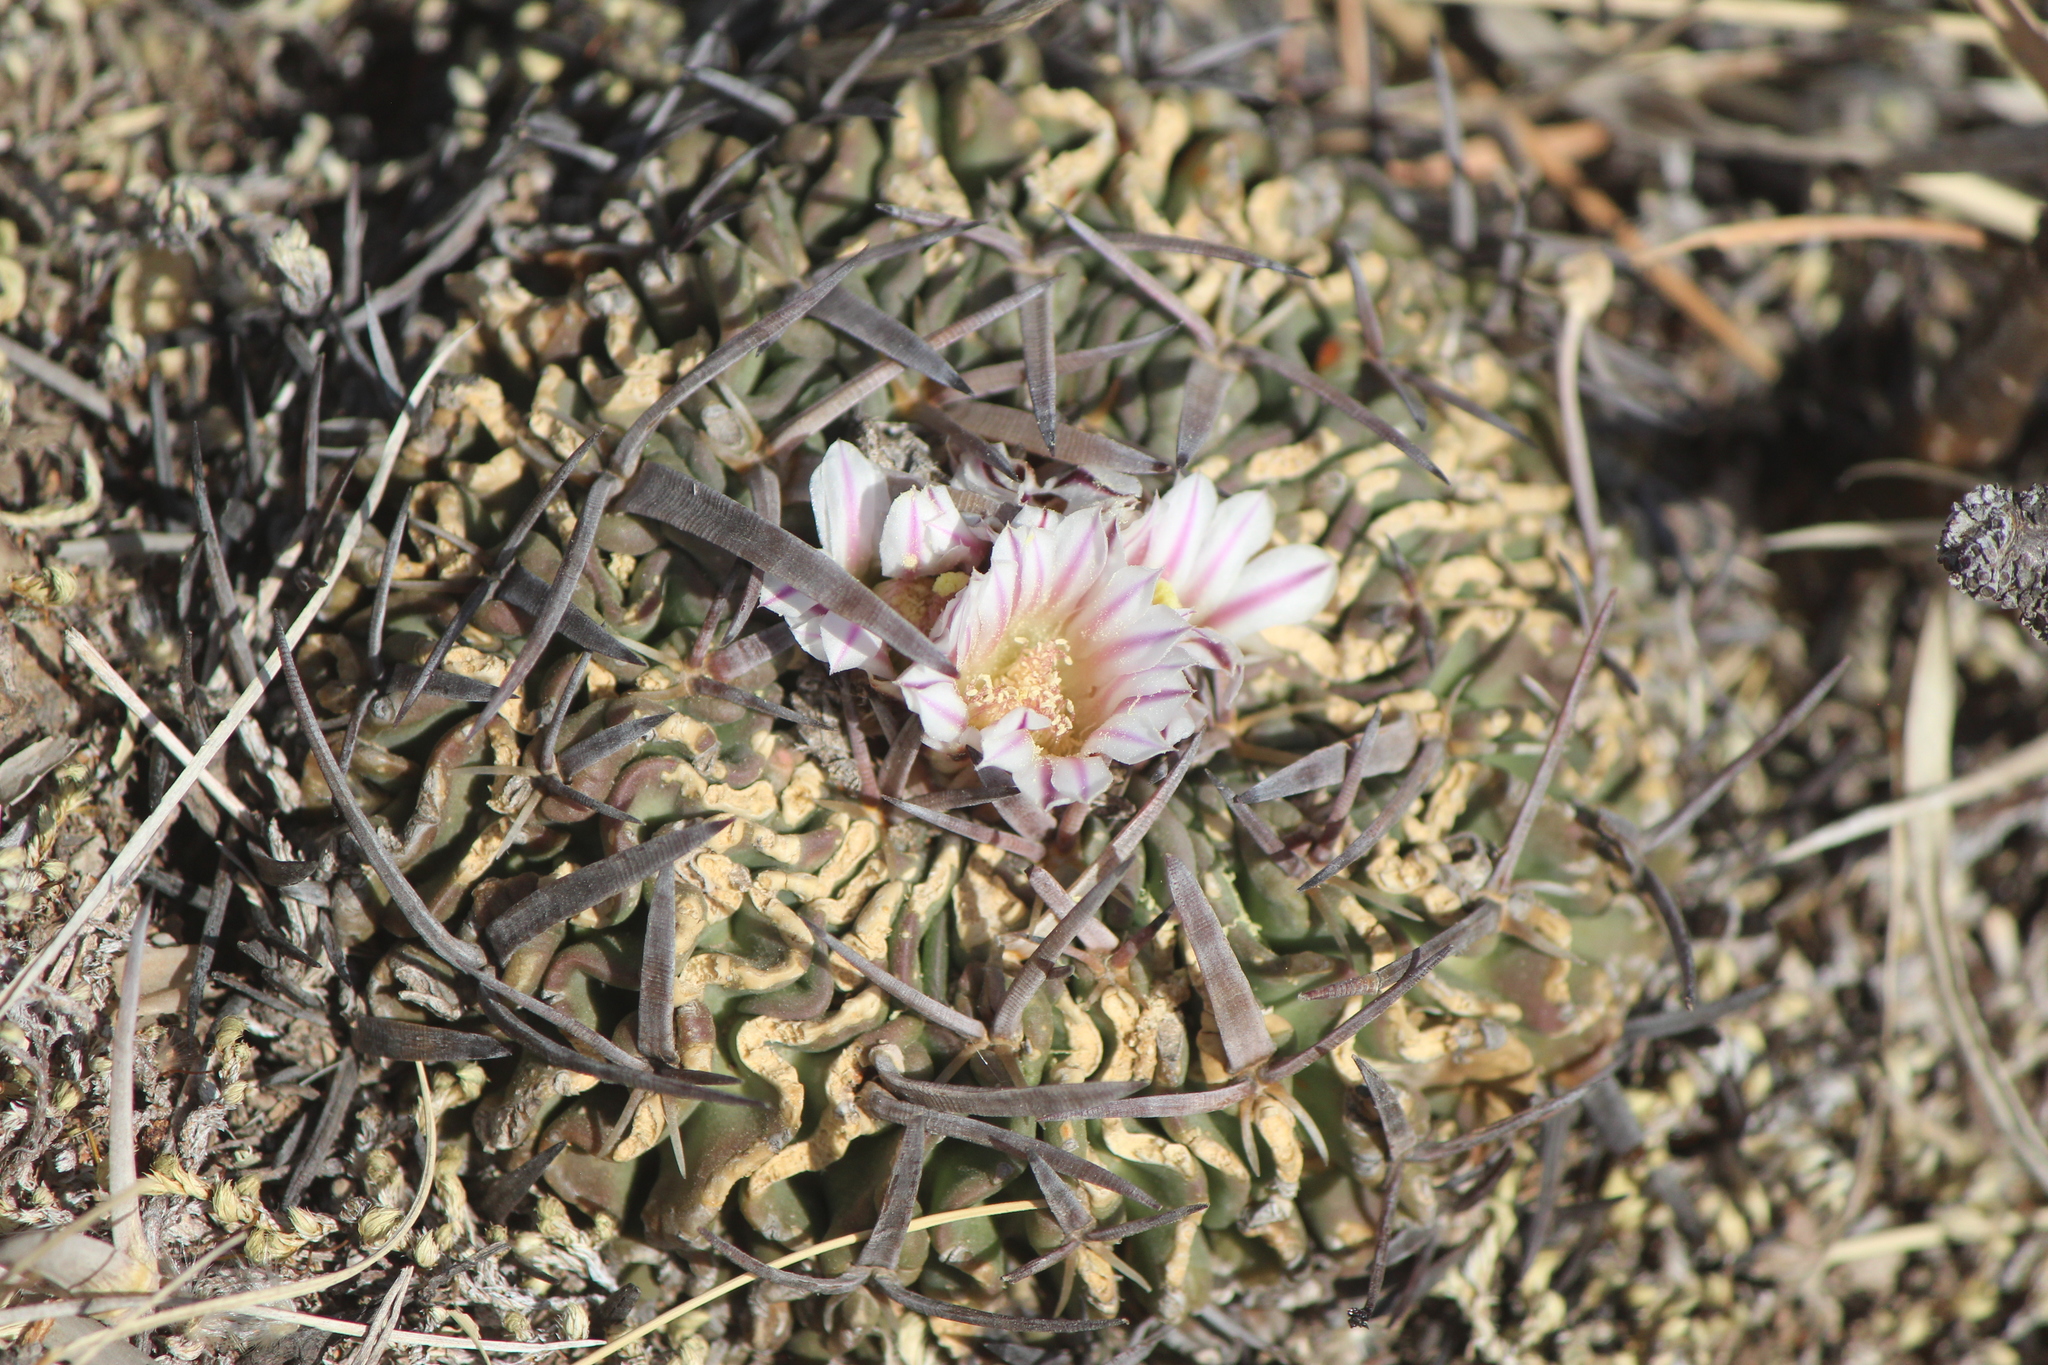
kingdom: Plantae
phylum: Tracheophyta
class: Magnoliopsida
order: Caryophyllales
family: Cactaceae
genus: Stenocactus
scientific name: Stenocactus obvallatus
